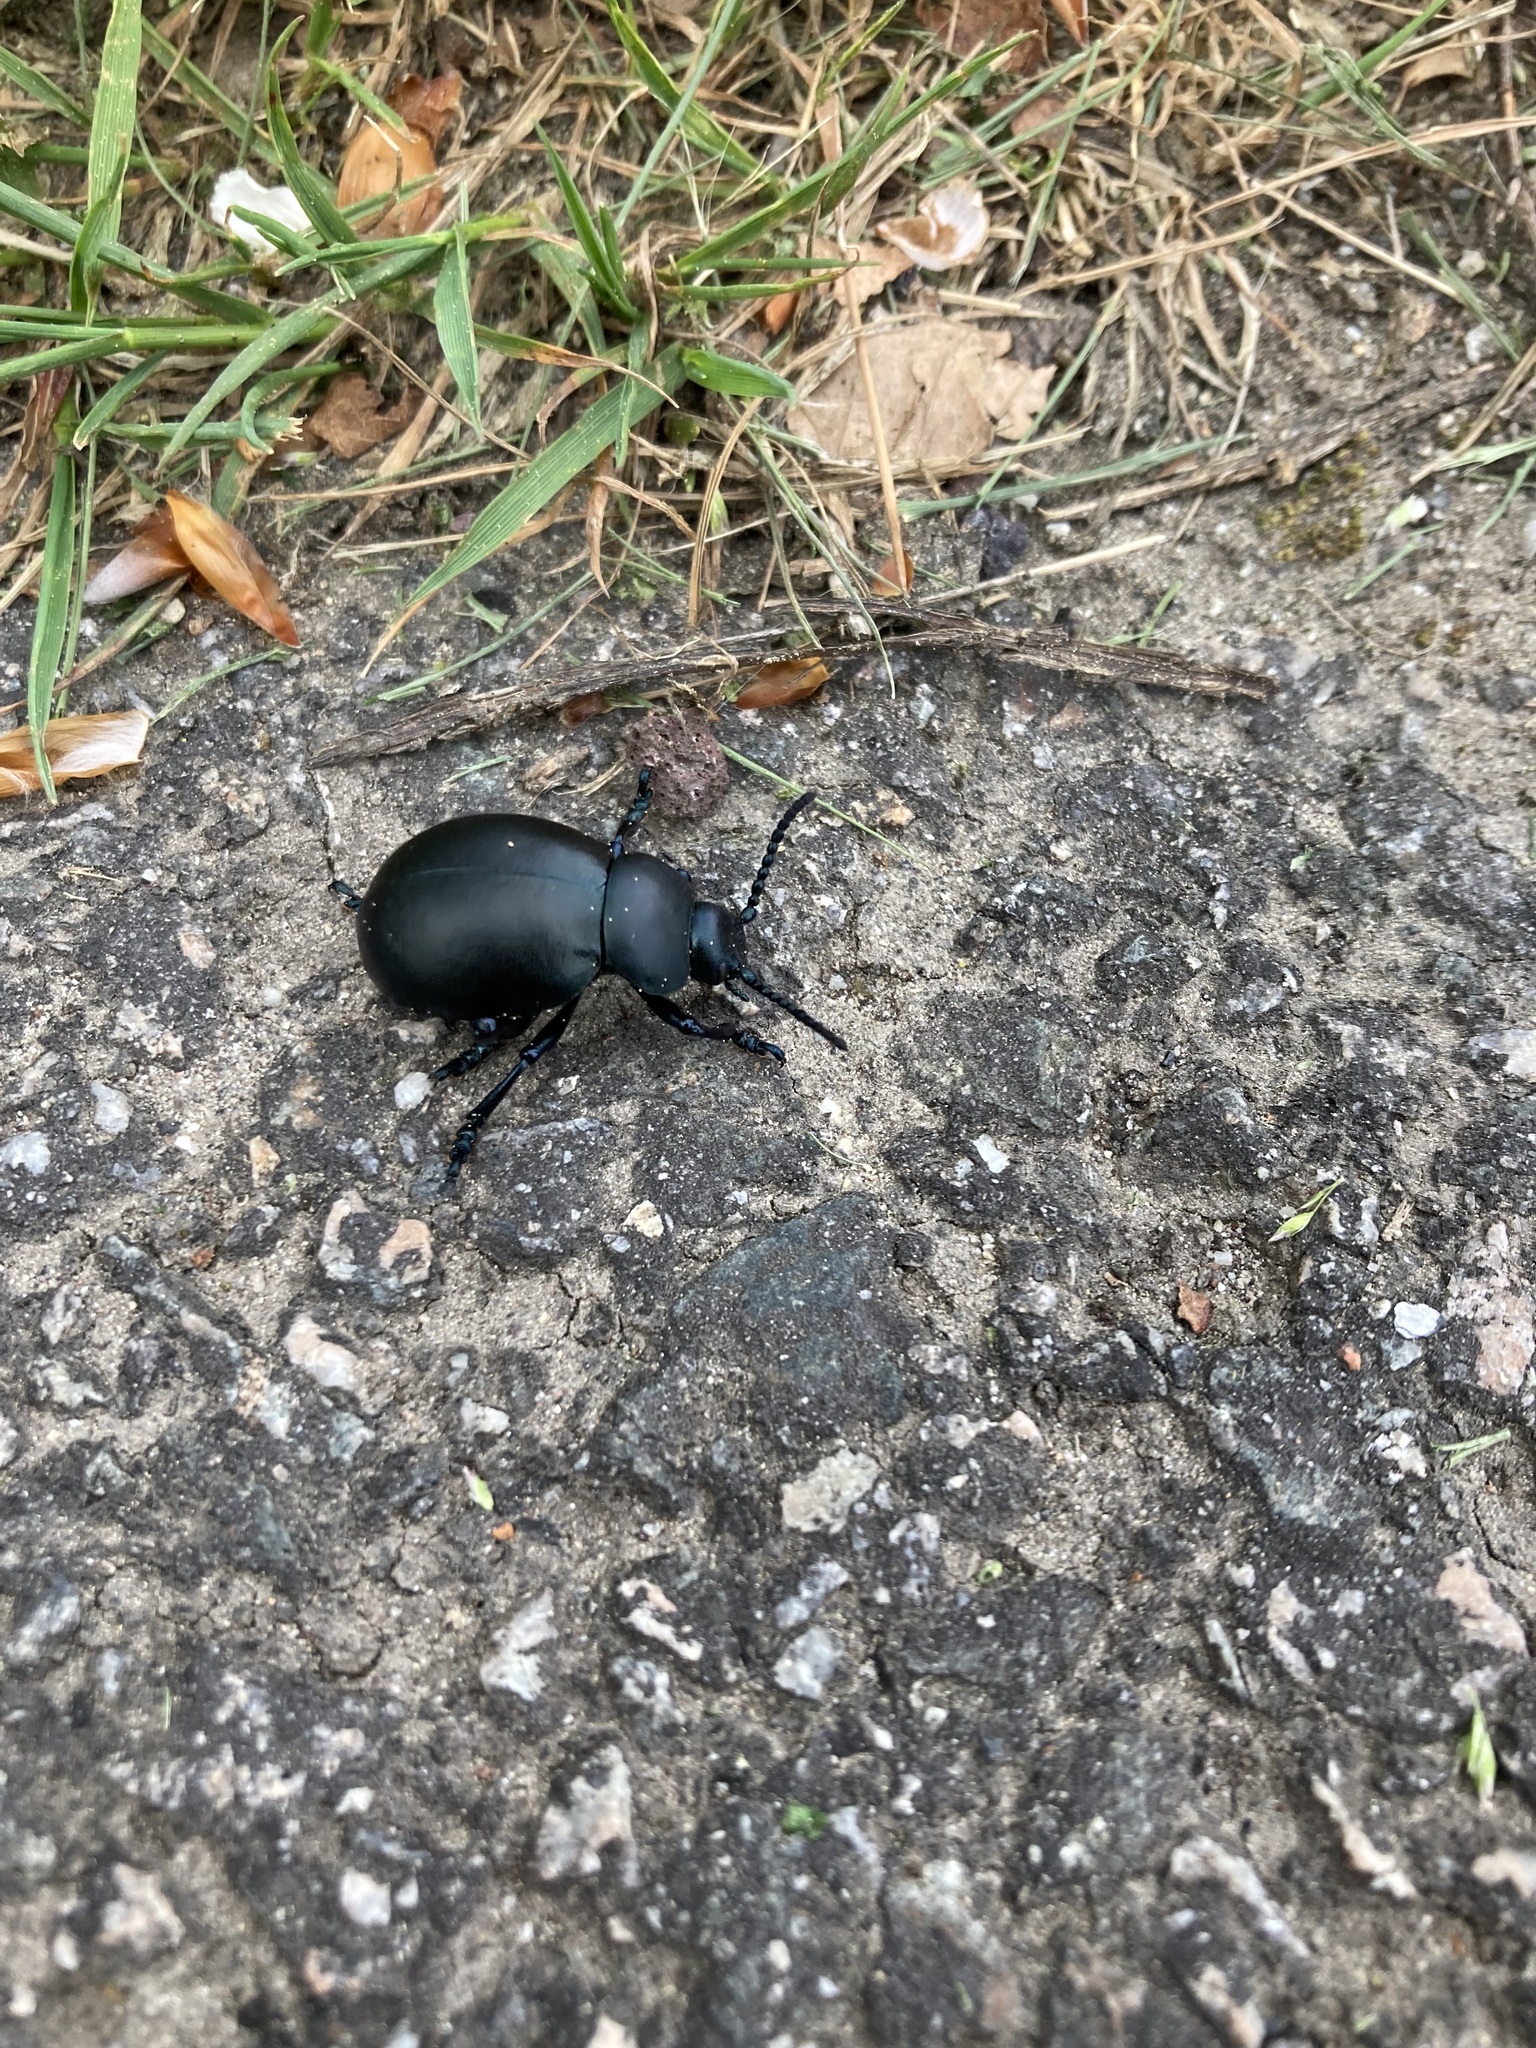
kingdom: Animalia
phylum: Arthropoda
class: Insecta
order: Coleoptera
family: Chrysomelidae
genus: Timarcha
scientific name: Timarcha tenebricosa
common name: Bloody-nosed beetle
